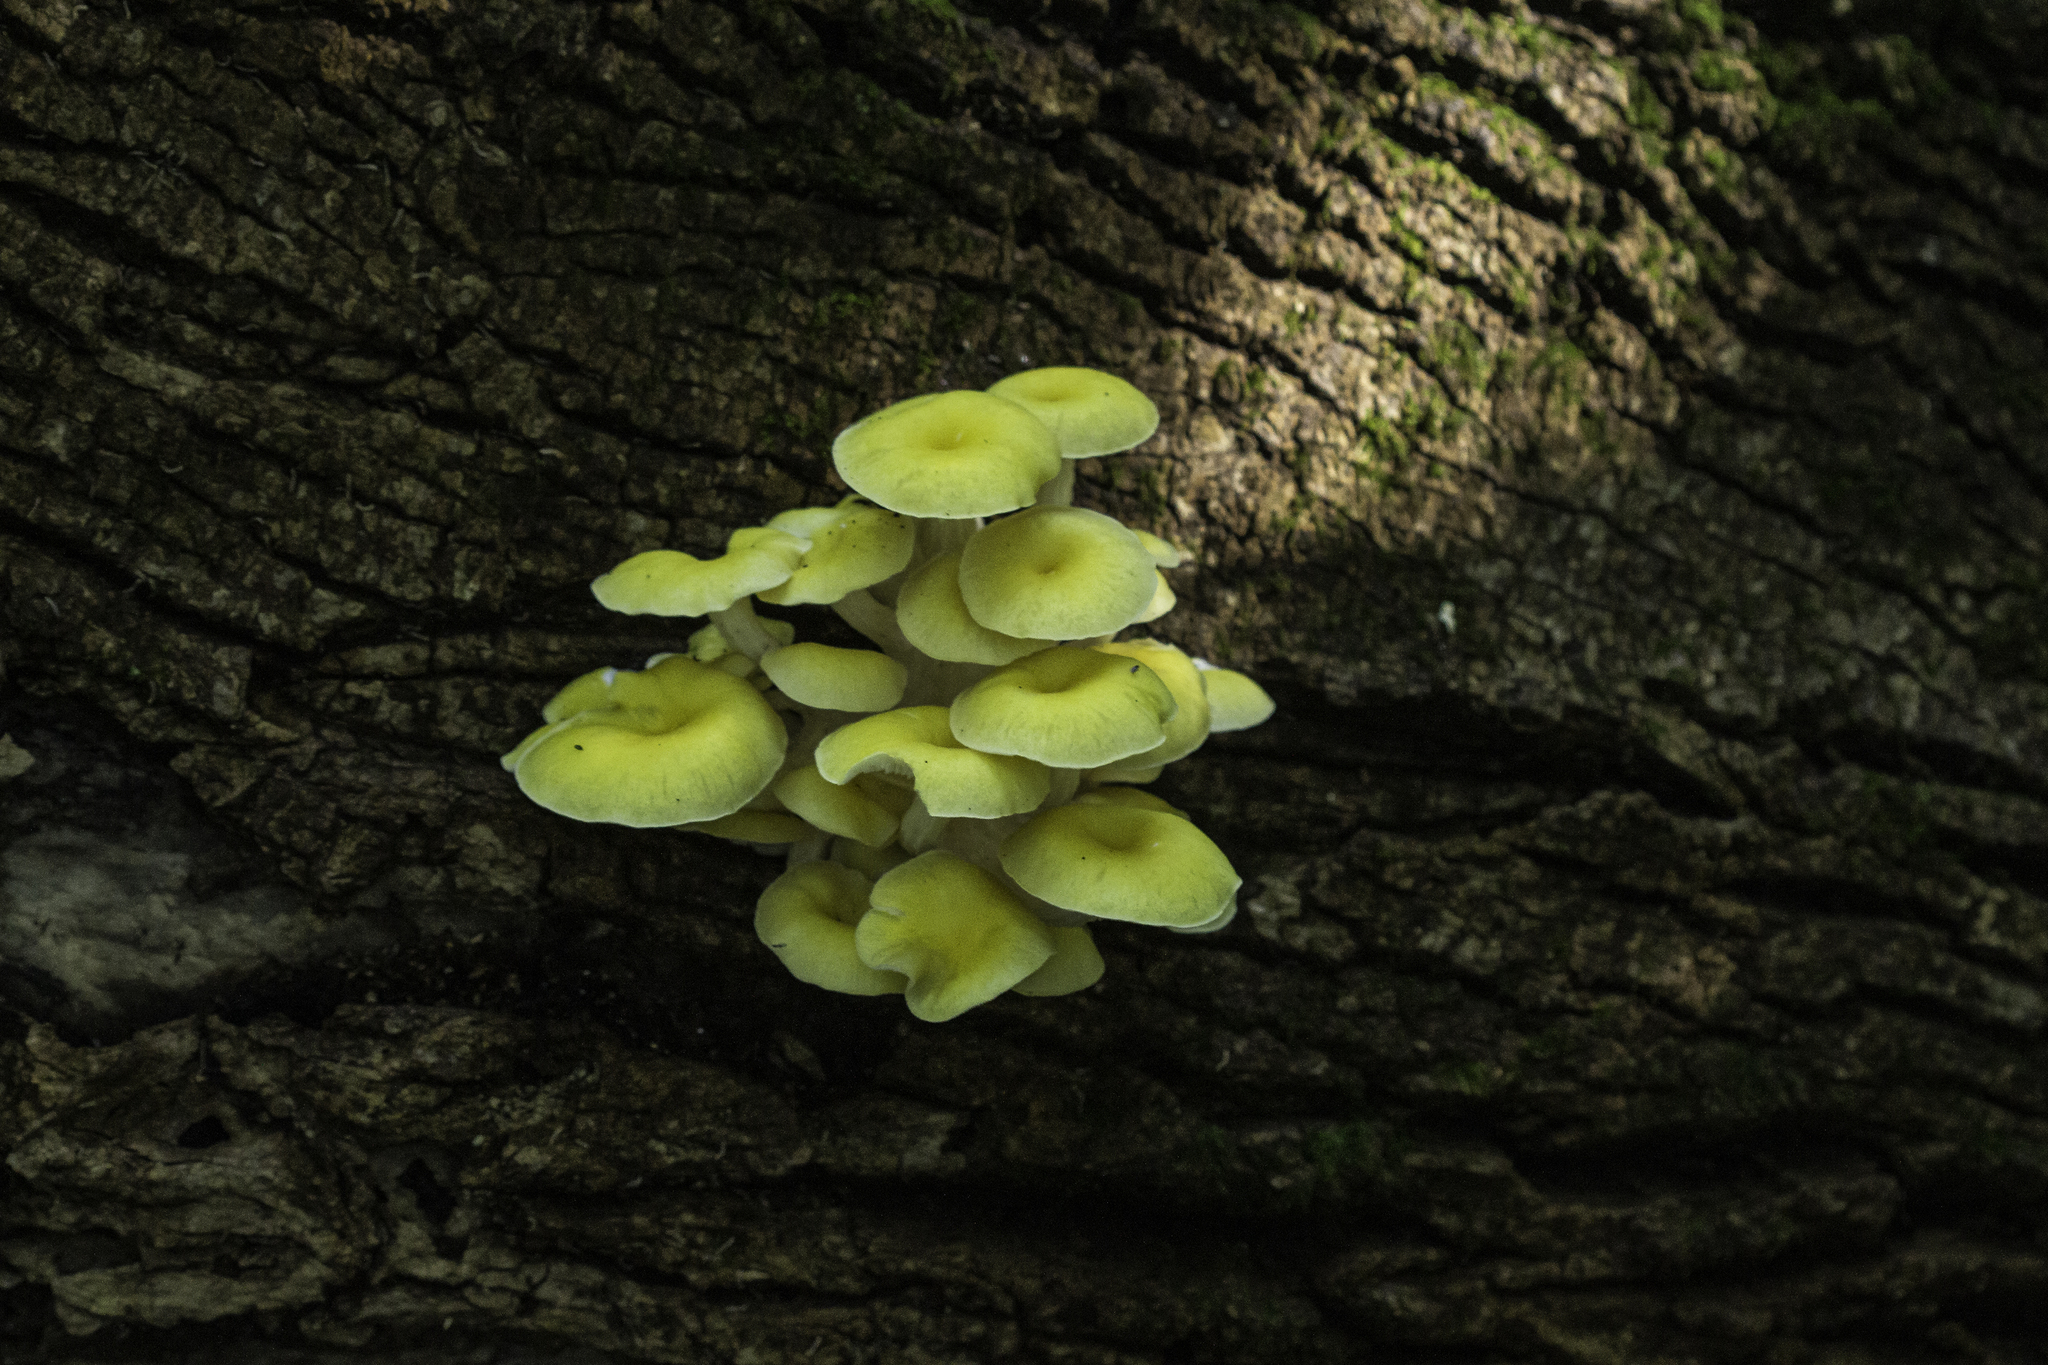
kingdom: Fungi
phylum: Basidiomycota
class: Agaricomycetes
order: Agaricales
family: Pleurotaceae
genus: Pleurotus
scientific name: Pleurotus citrinopileatus
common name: Golden oyster mushroom
